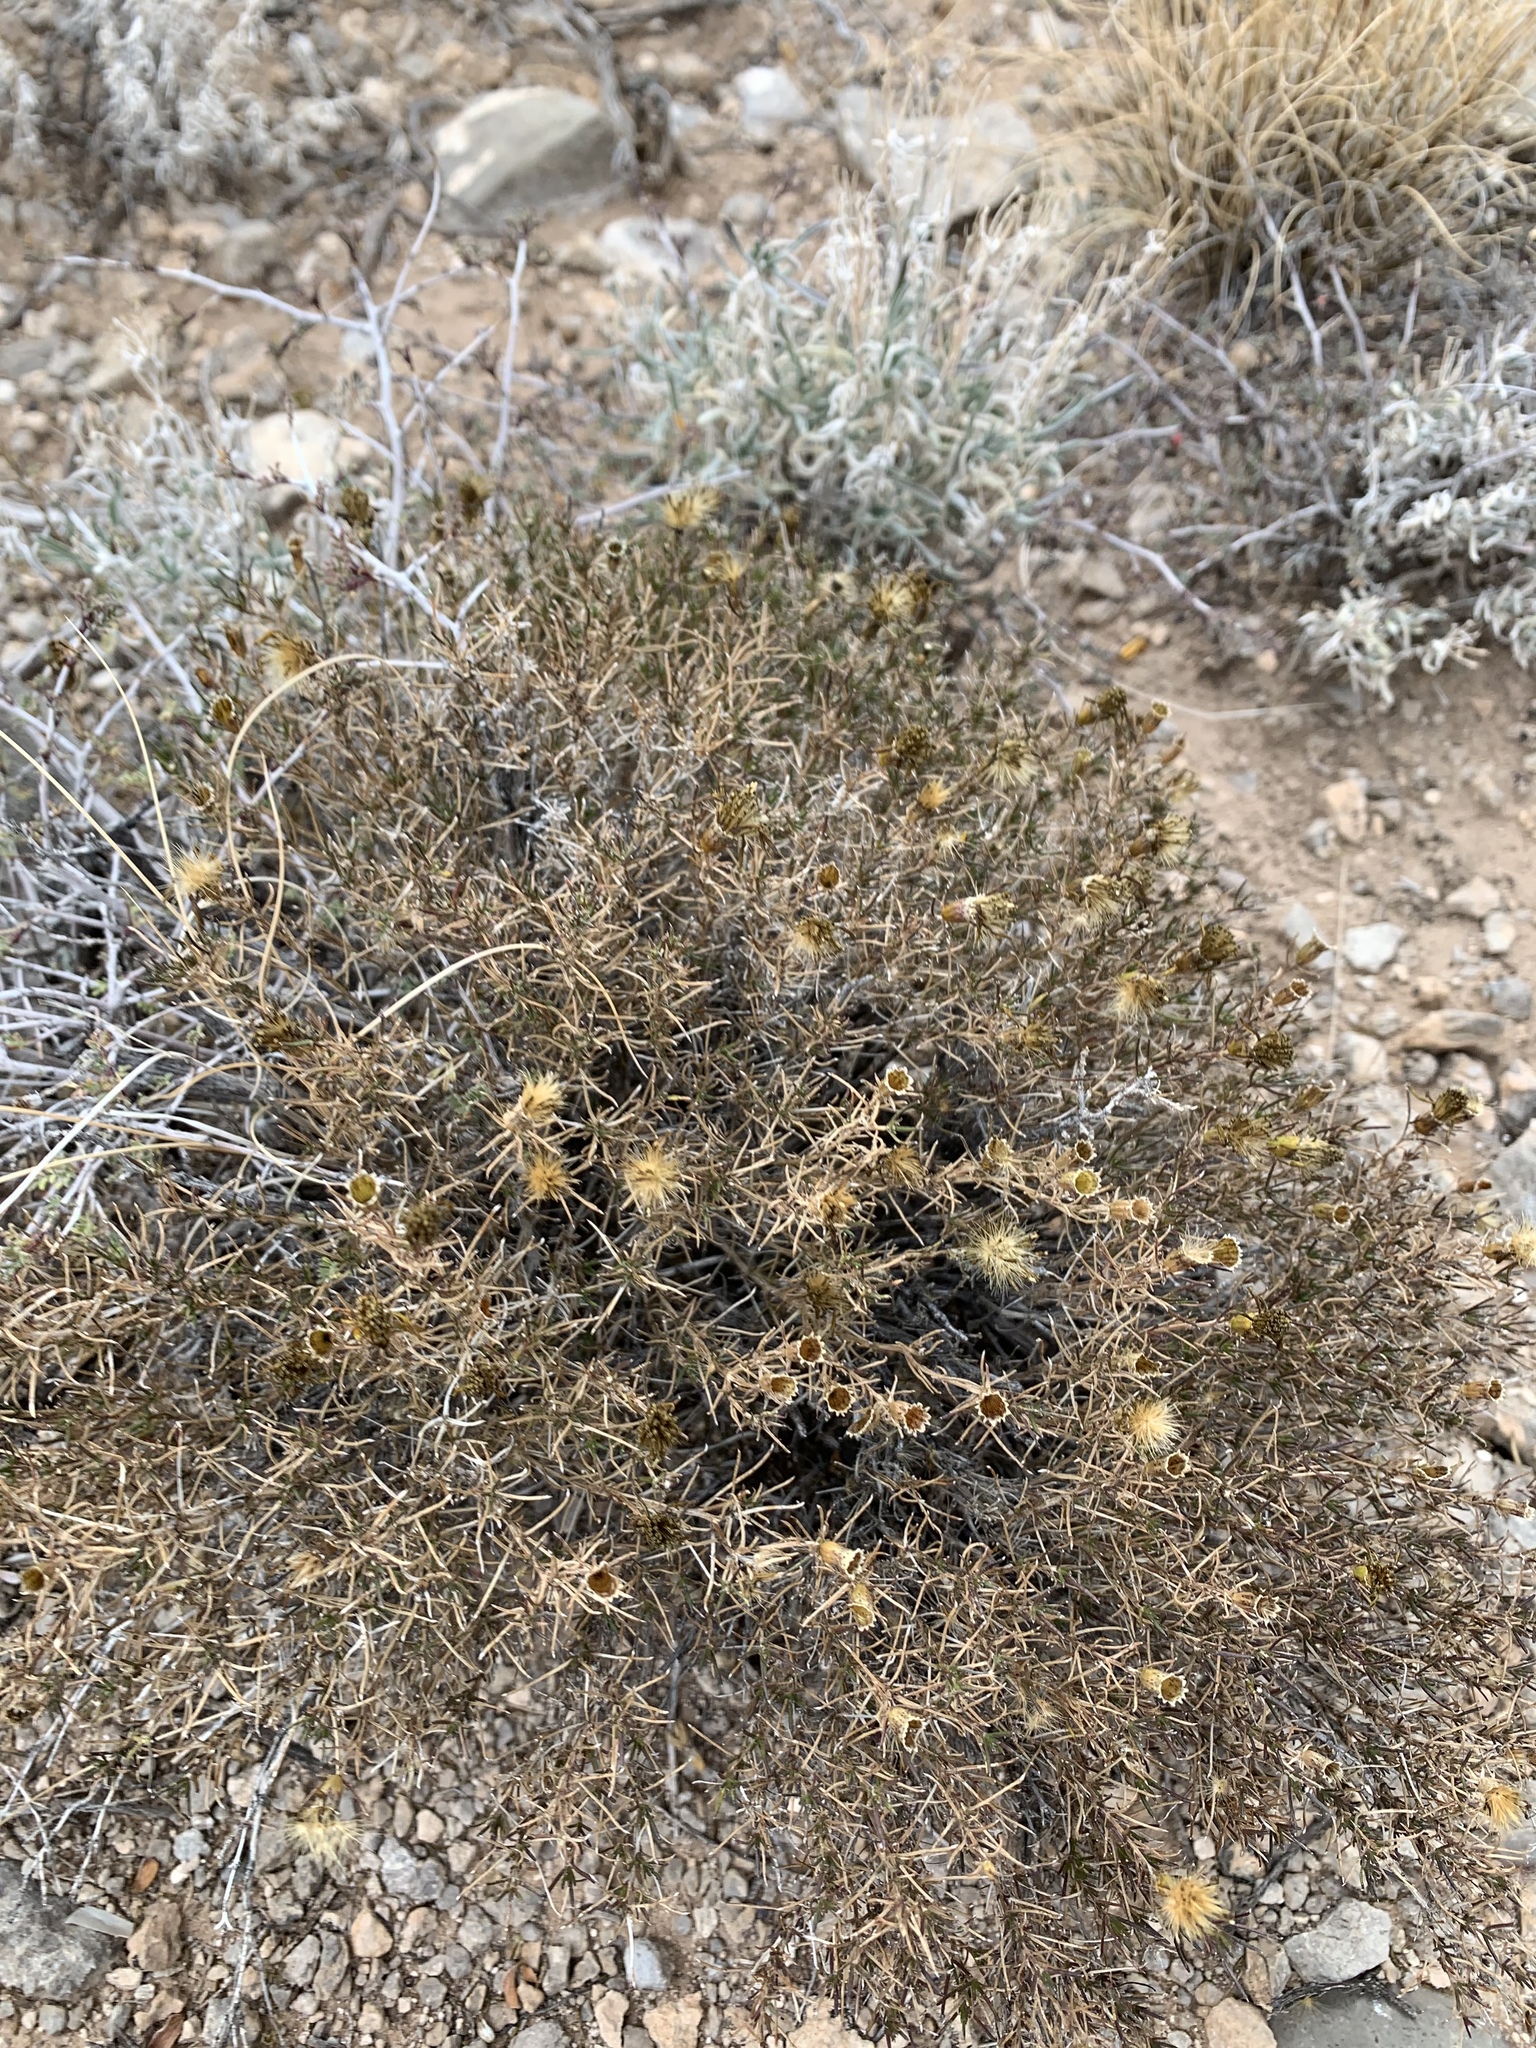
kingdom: Plantae
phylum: Tracheophyta
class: Magnoliopsida
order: Asterales
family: Asteraceae
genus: Thymophylla
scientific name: Thymophylla acerosa
